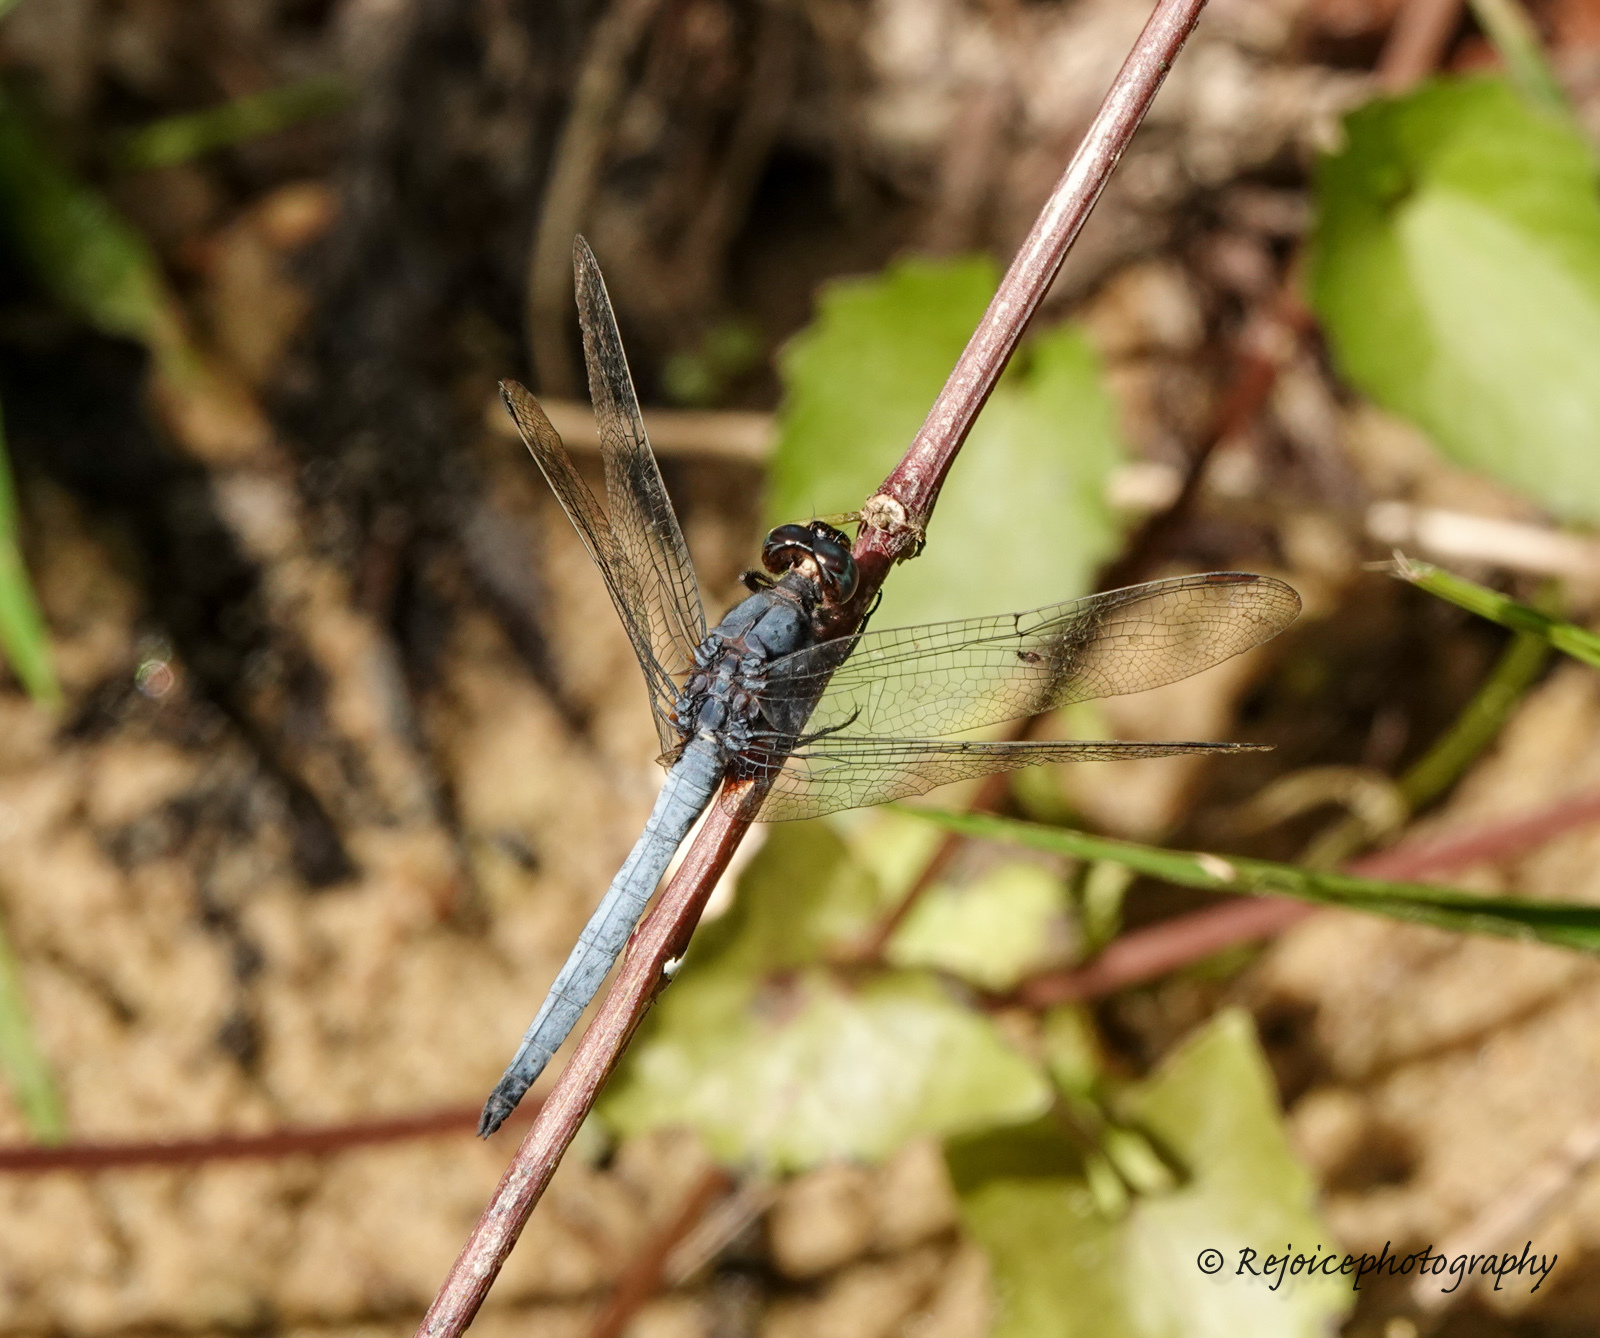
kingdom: Animalia
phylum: Arthropoda
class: Insecta
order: Odonata
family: Libellulidae
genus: Orthetrum
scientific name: Orthetrum glaucum
